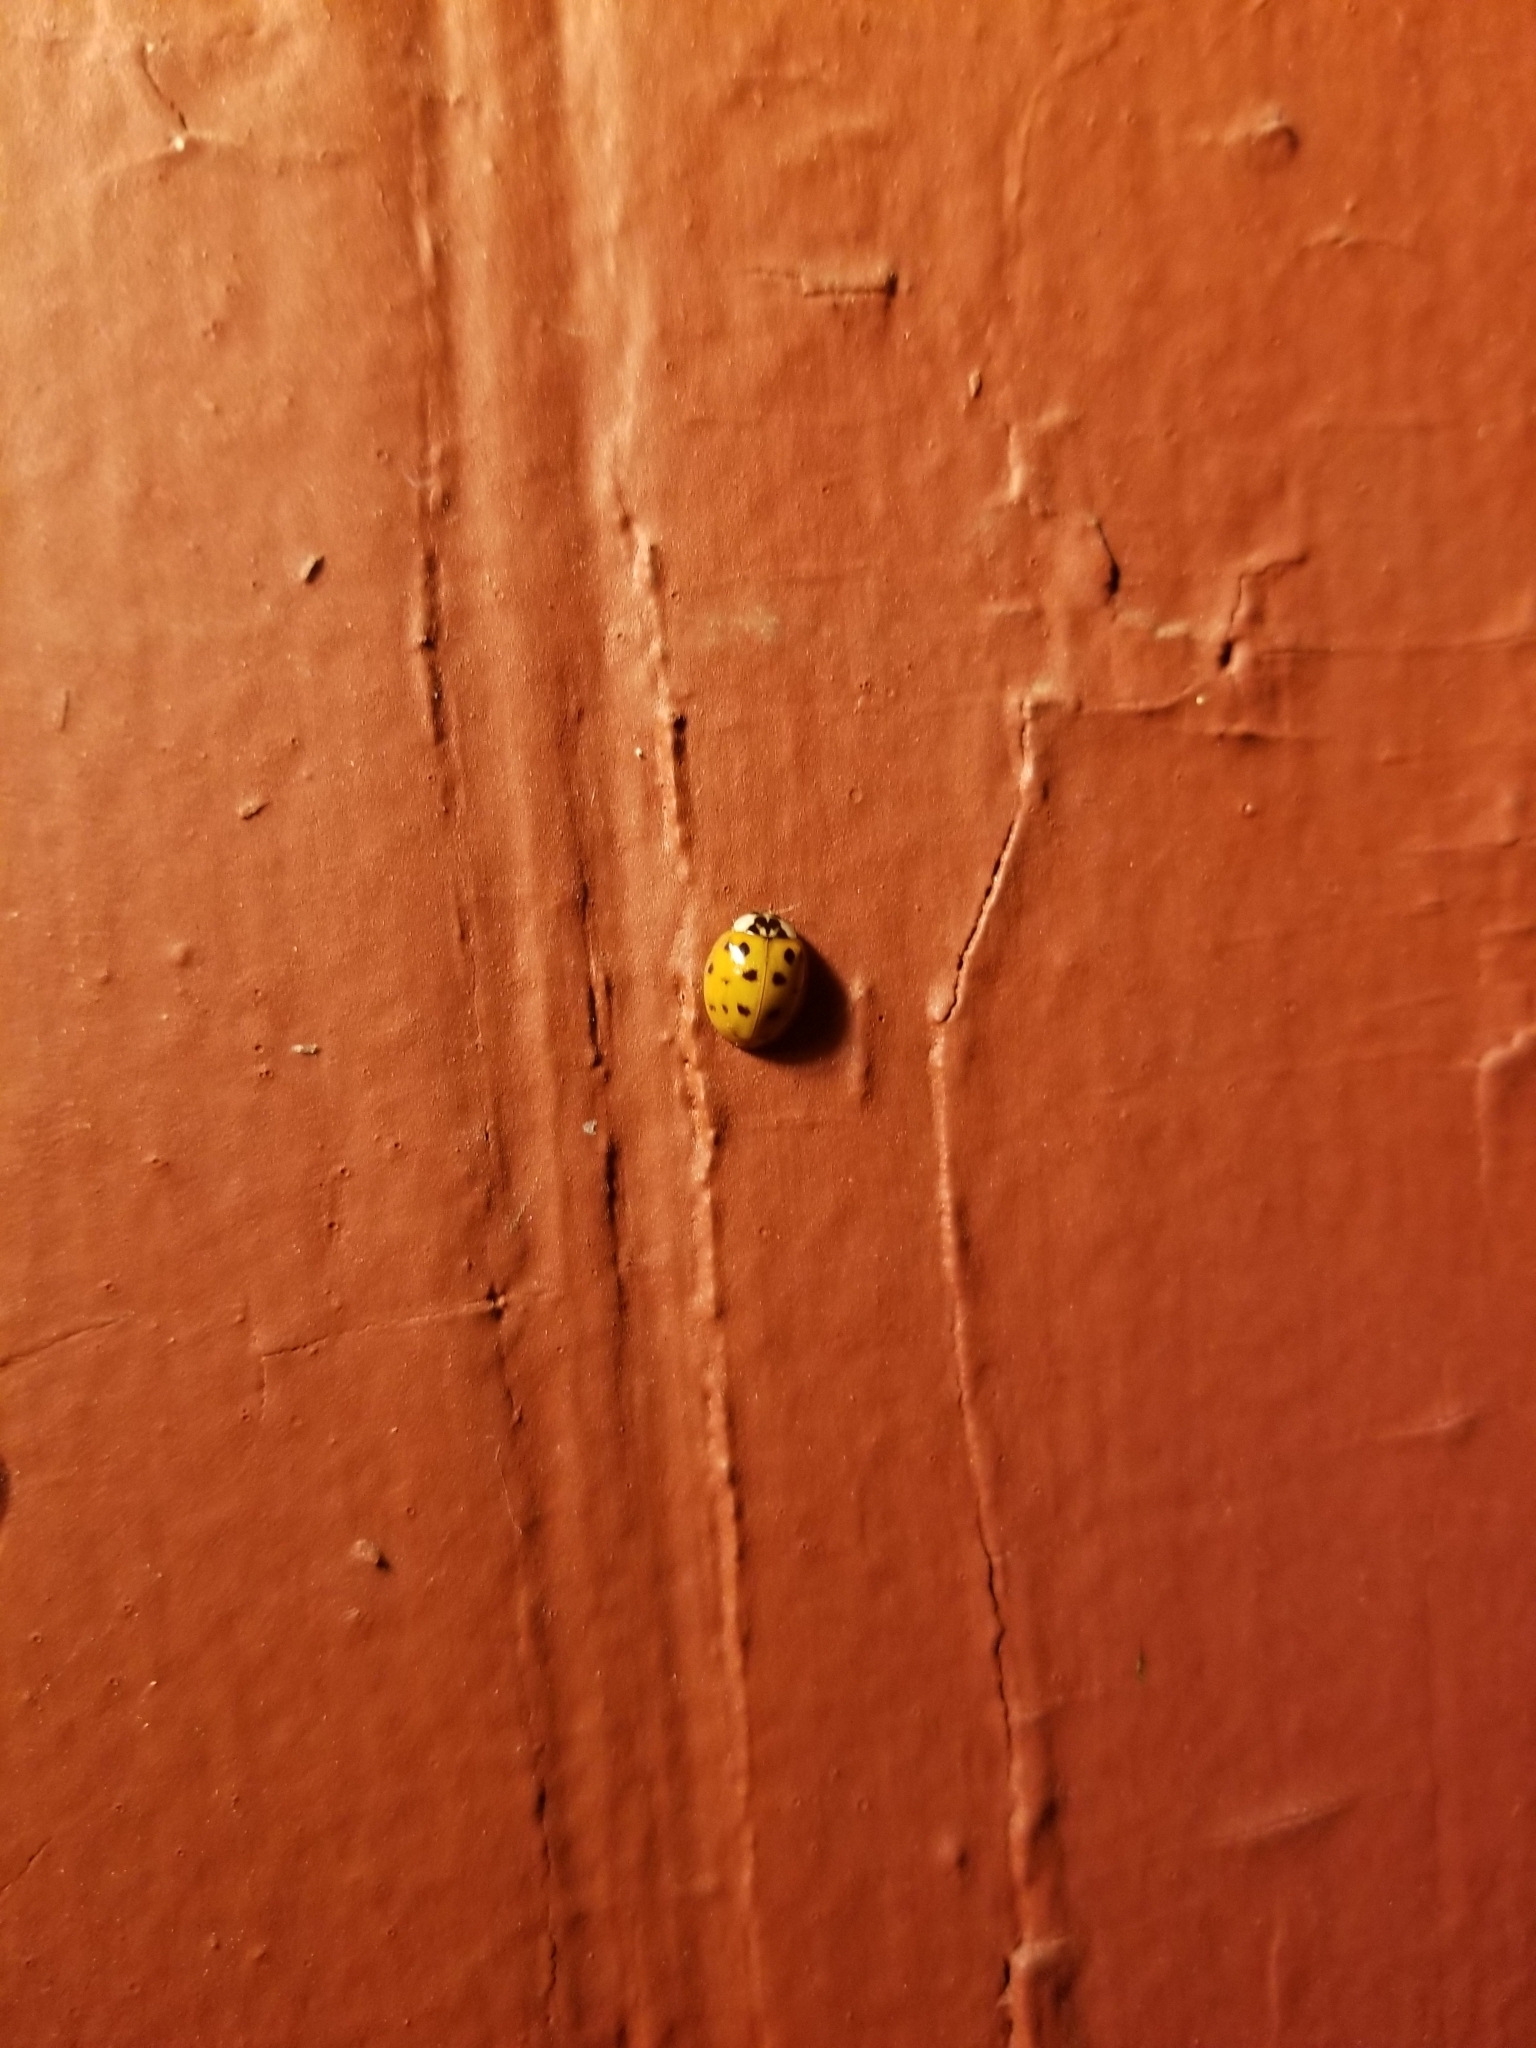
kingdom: Animalia
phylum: Arthropoda
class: Insecta
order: Coleoptera
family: Coccinellidae
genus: Harmonia
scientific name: Harmonia axyridis
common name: Harlequin ladybird
